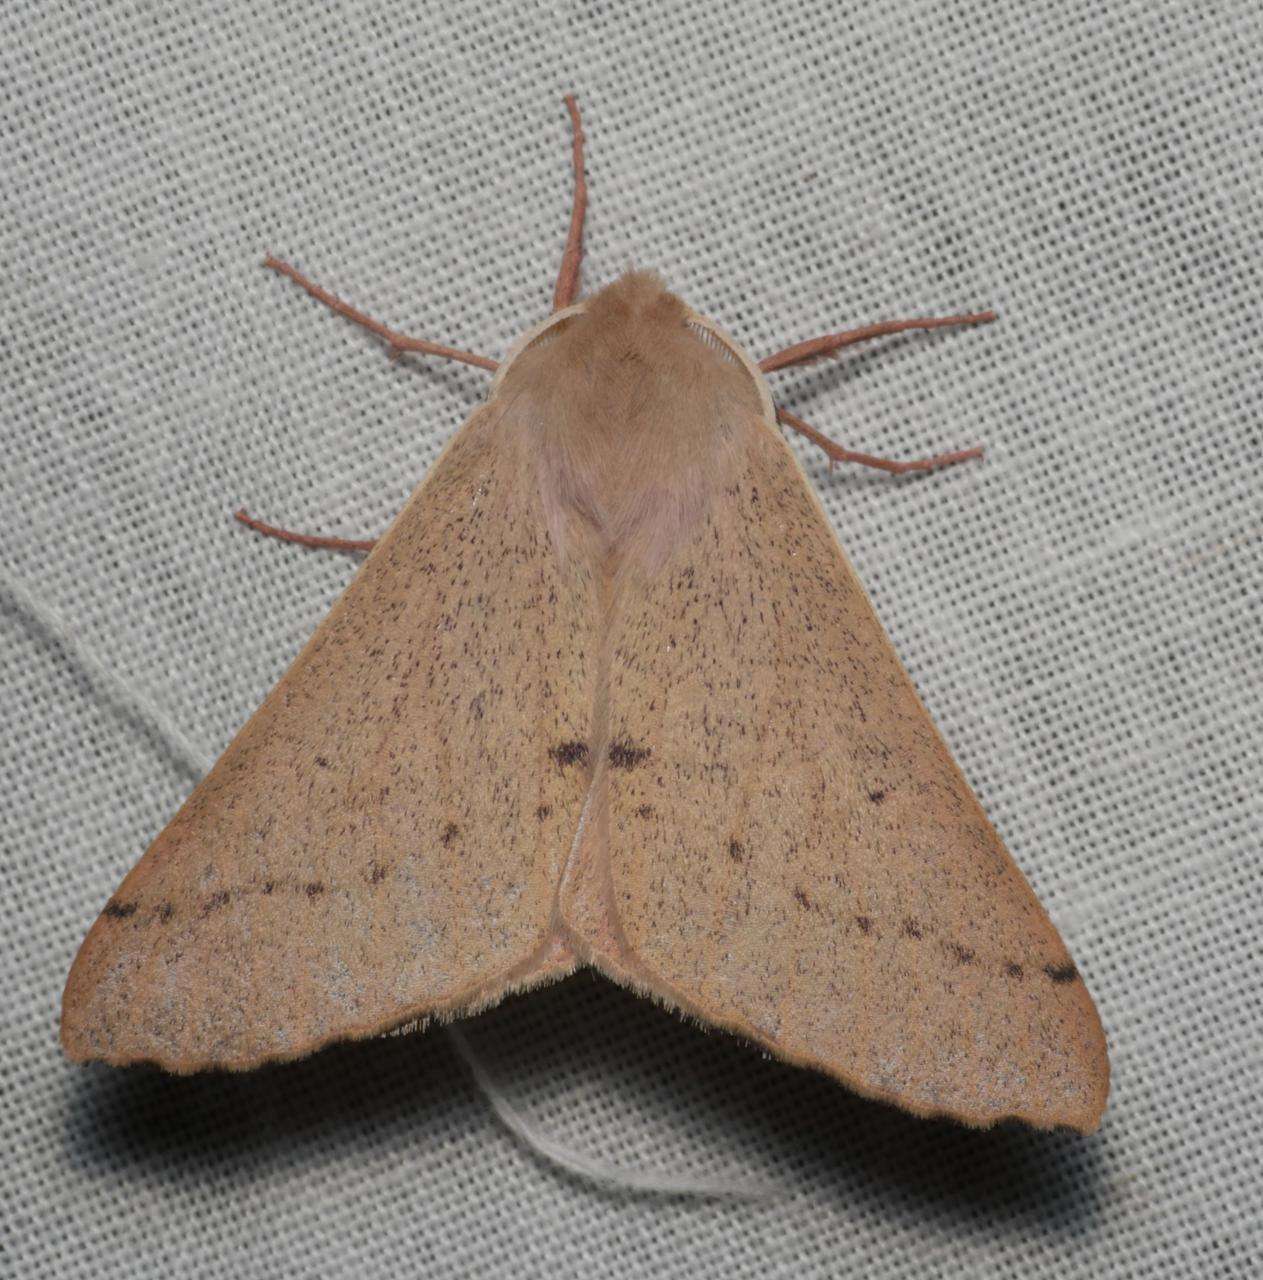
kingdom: Animalia
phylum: Arthropoda
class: Insecta
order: Lepidoptera
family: Geometridae
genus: Arhodia
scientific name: Arhodia lasiocamparia
